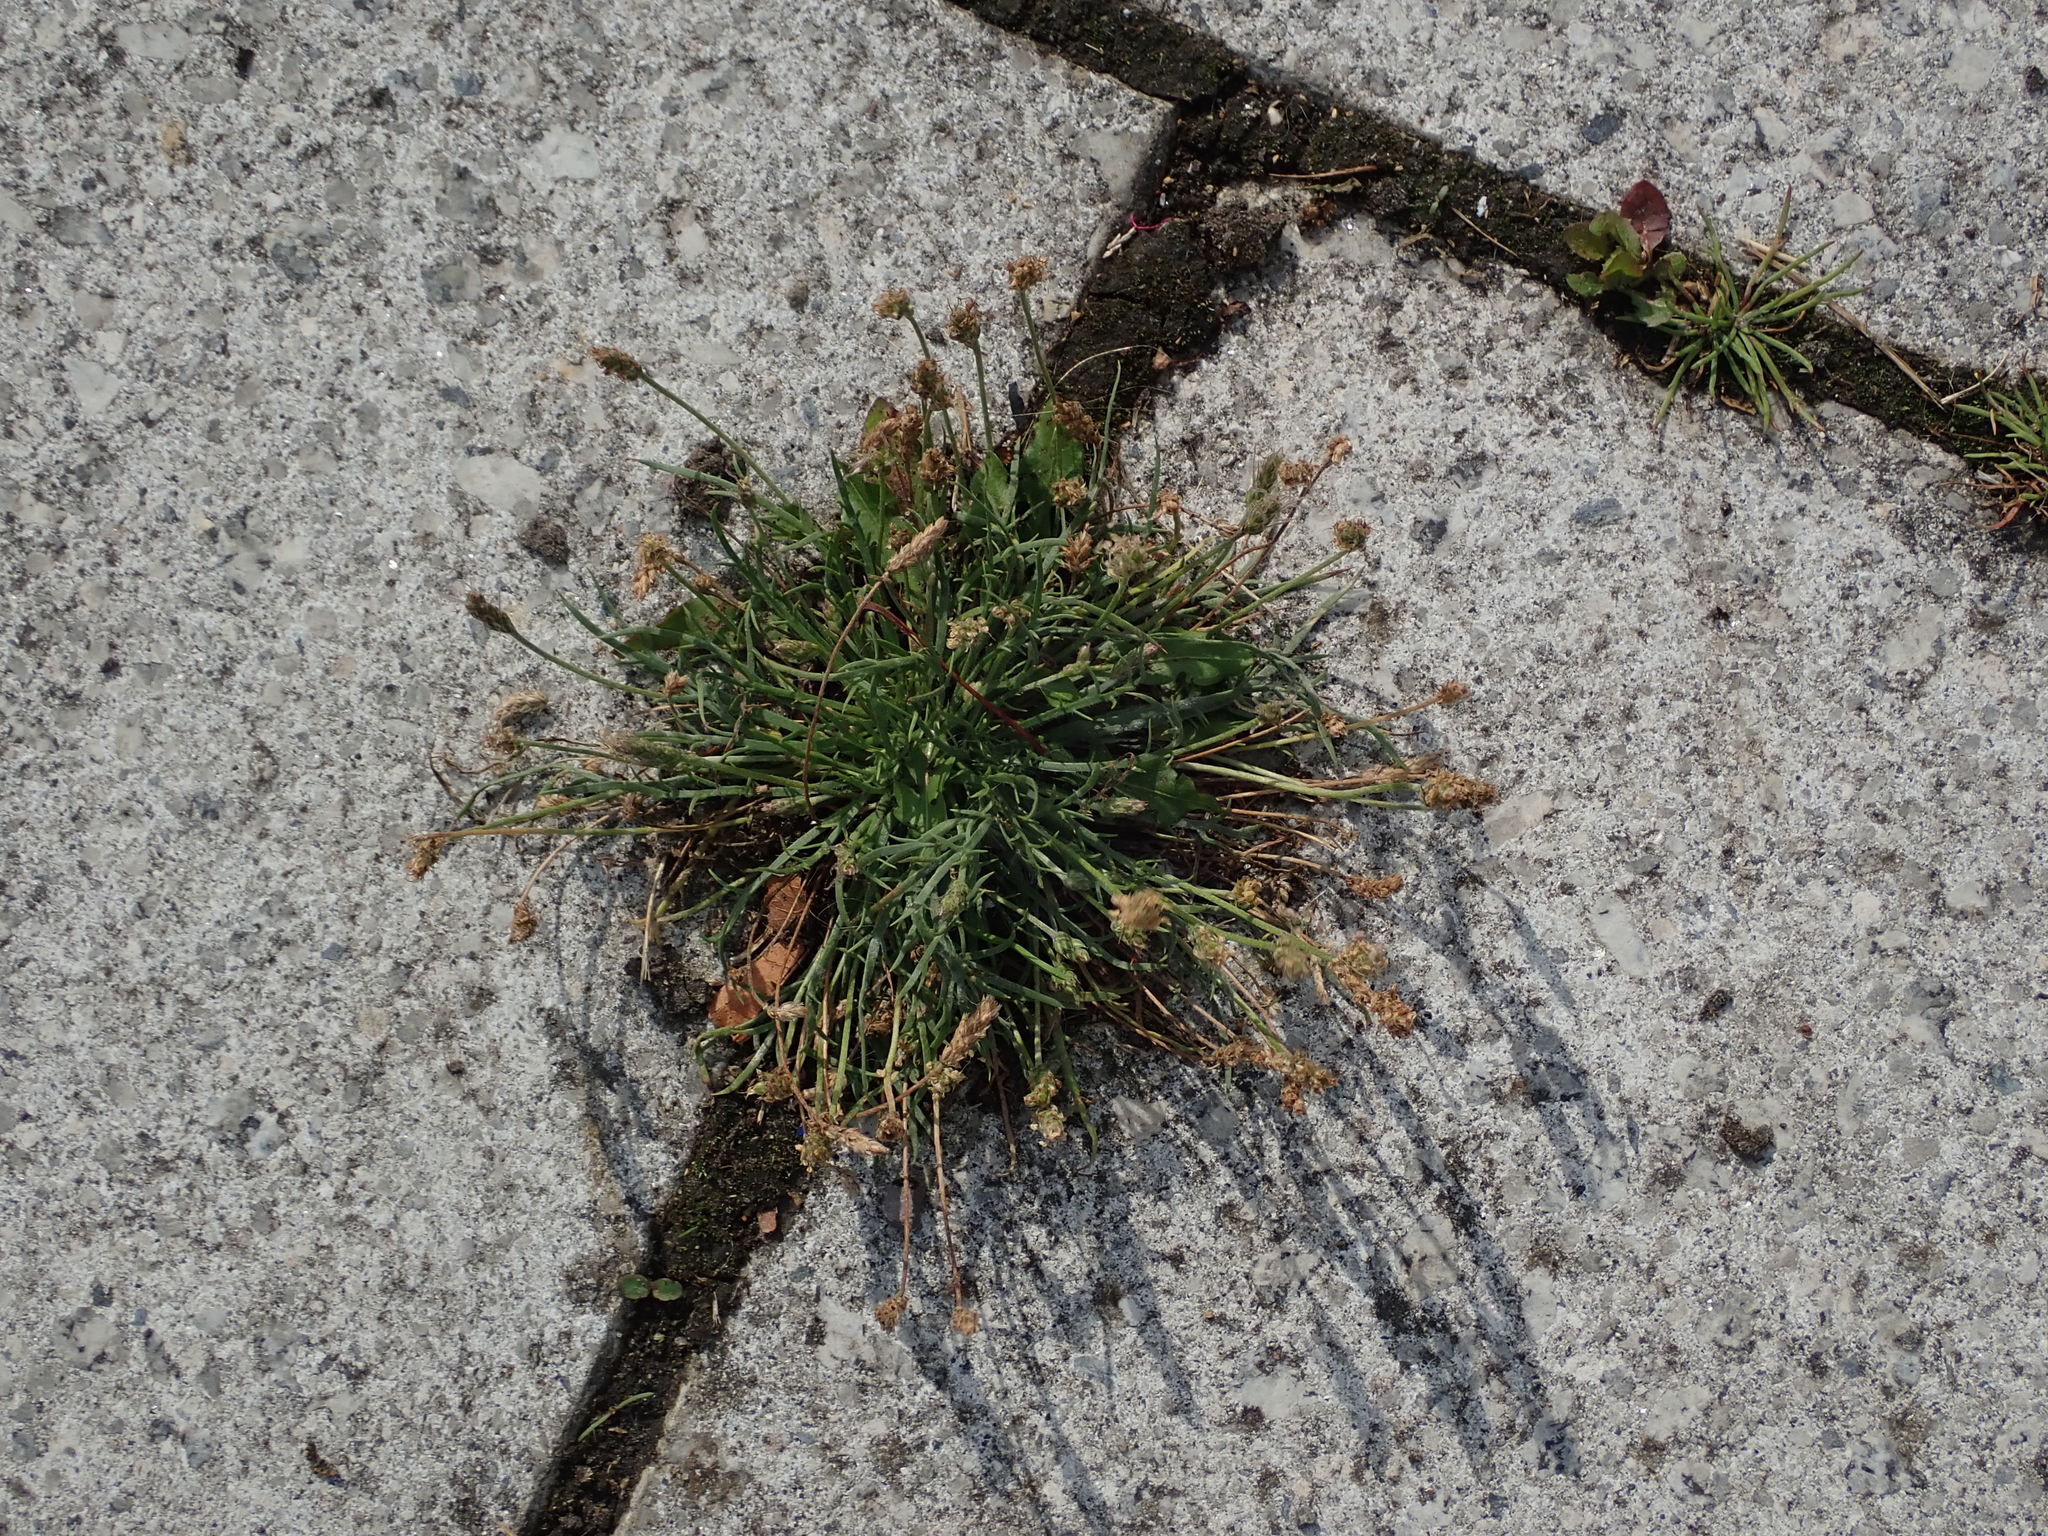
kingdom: Plantae
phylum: Tracheophyta
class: Magnoliopsida
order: Lamiales
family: Plantaginaceae
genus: Plantago
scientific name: Plantago coronopus
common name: Buck's-horn plantain
